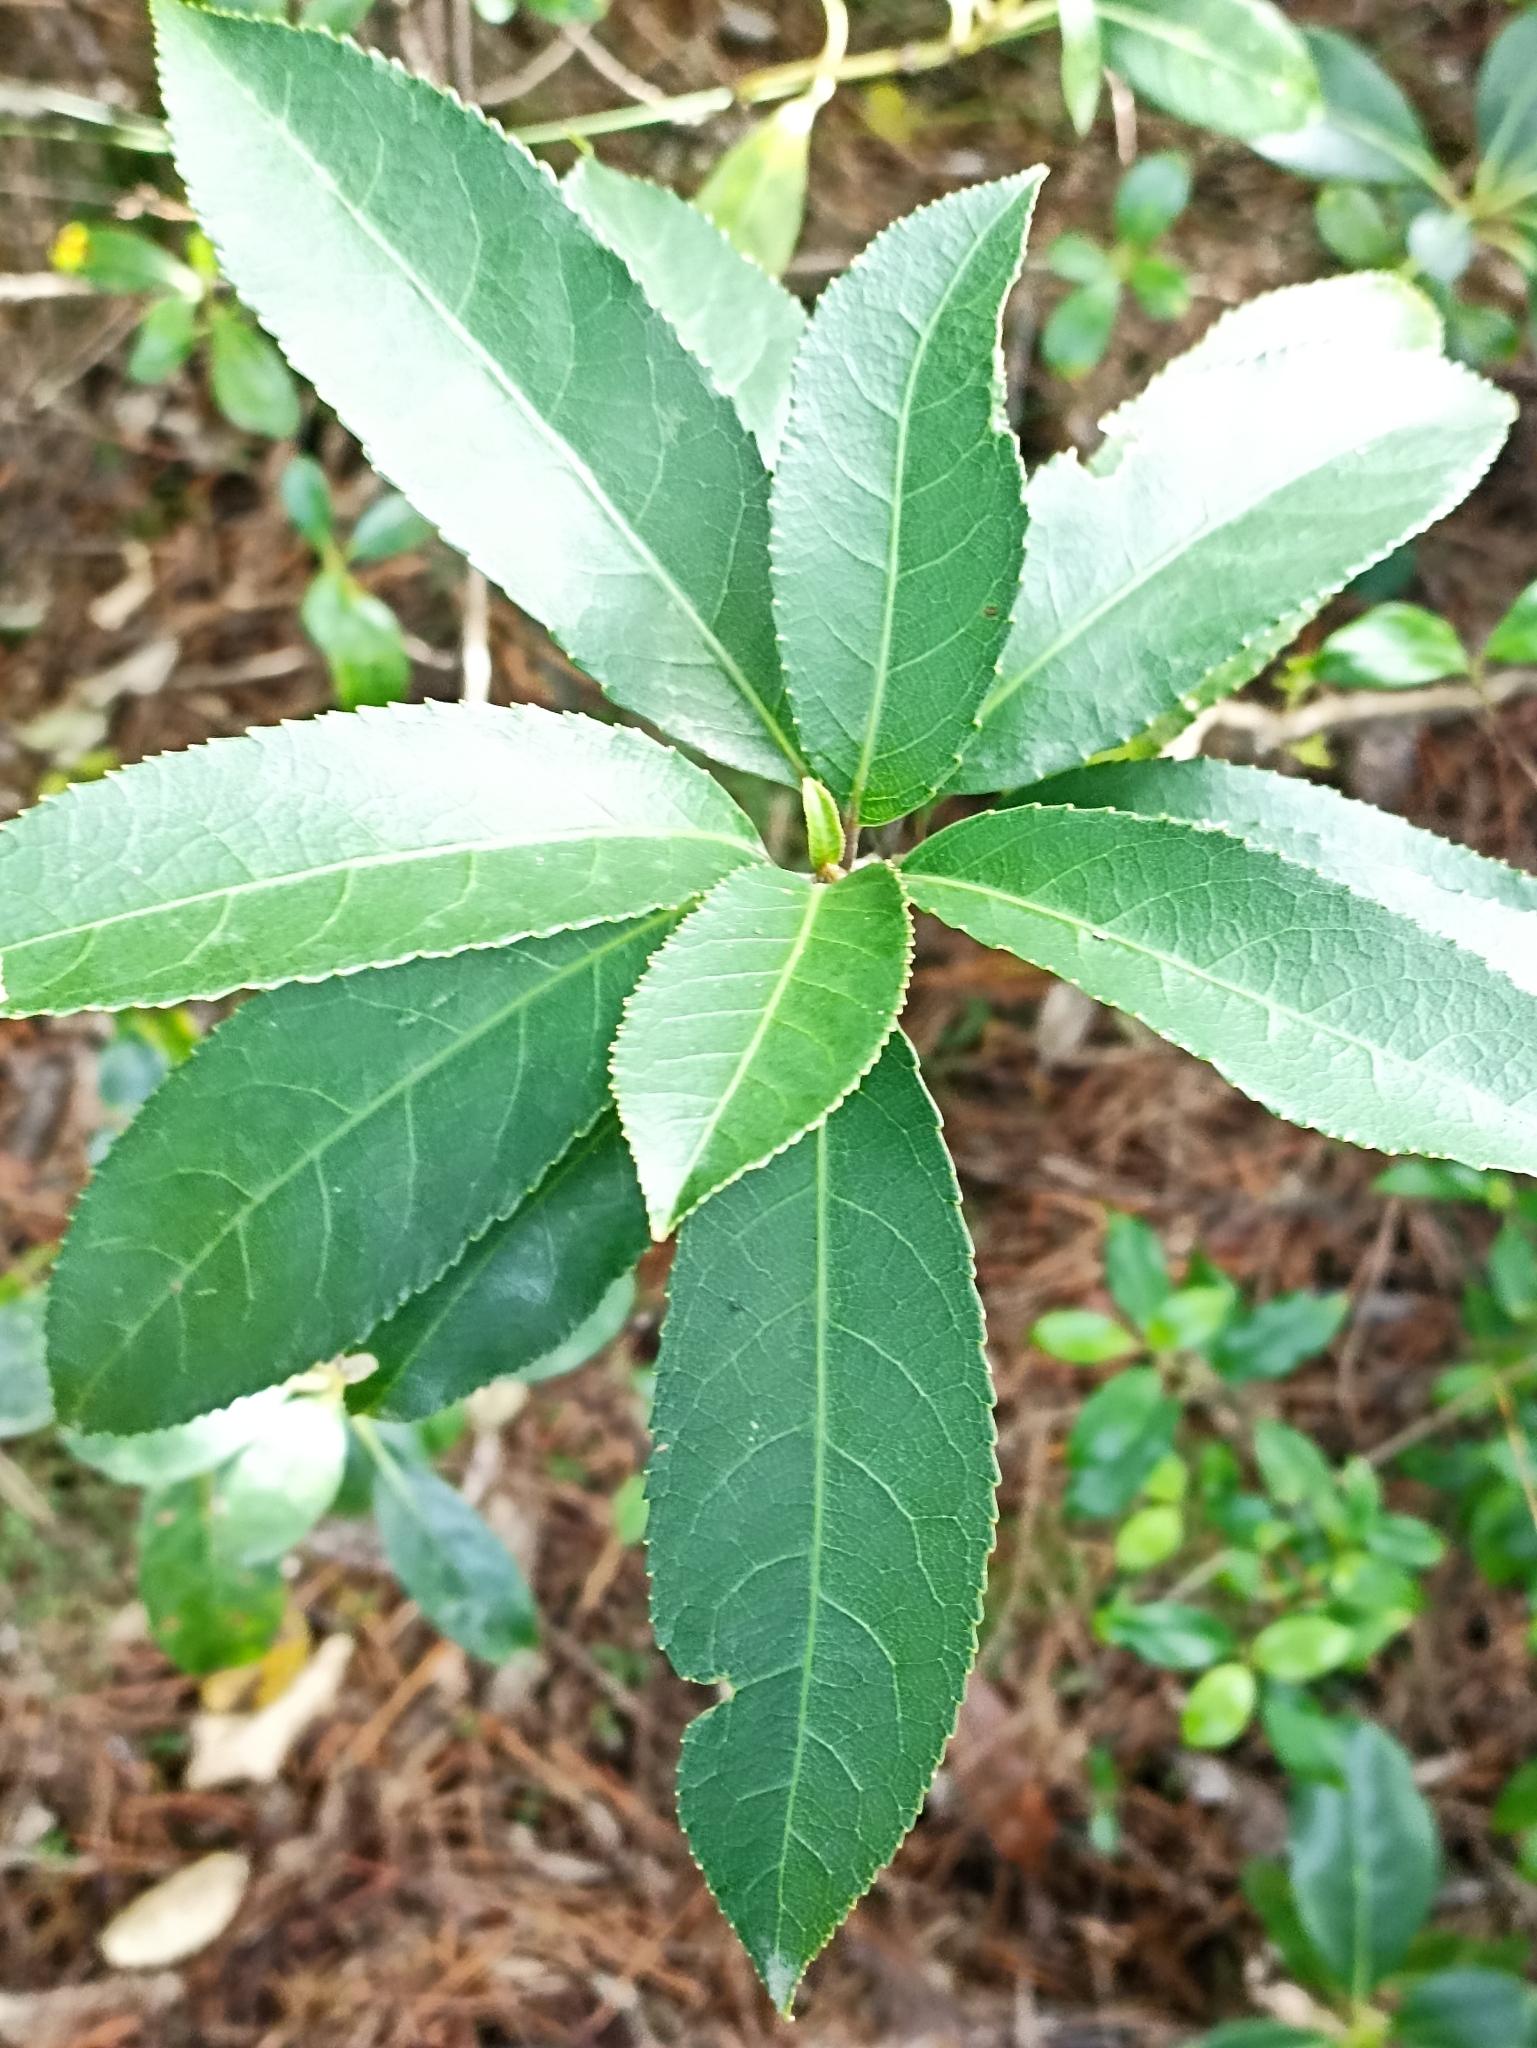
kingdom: Plantae
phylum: Tracheophyta
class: Magnoliopsida
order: Malpighiales
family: Violaceae
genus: Melicytus
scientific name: Melicytus ramiflorus
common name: Mahoe
